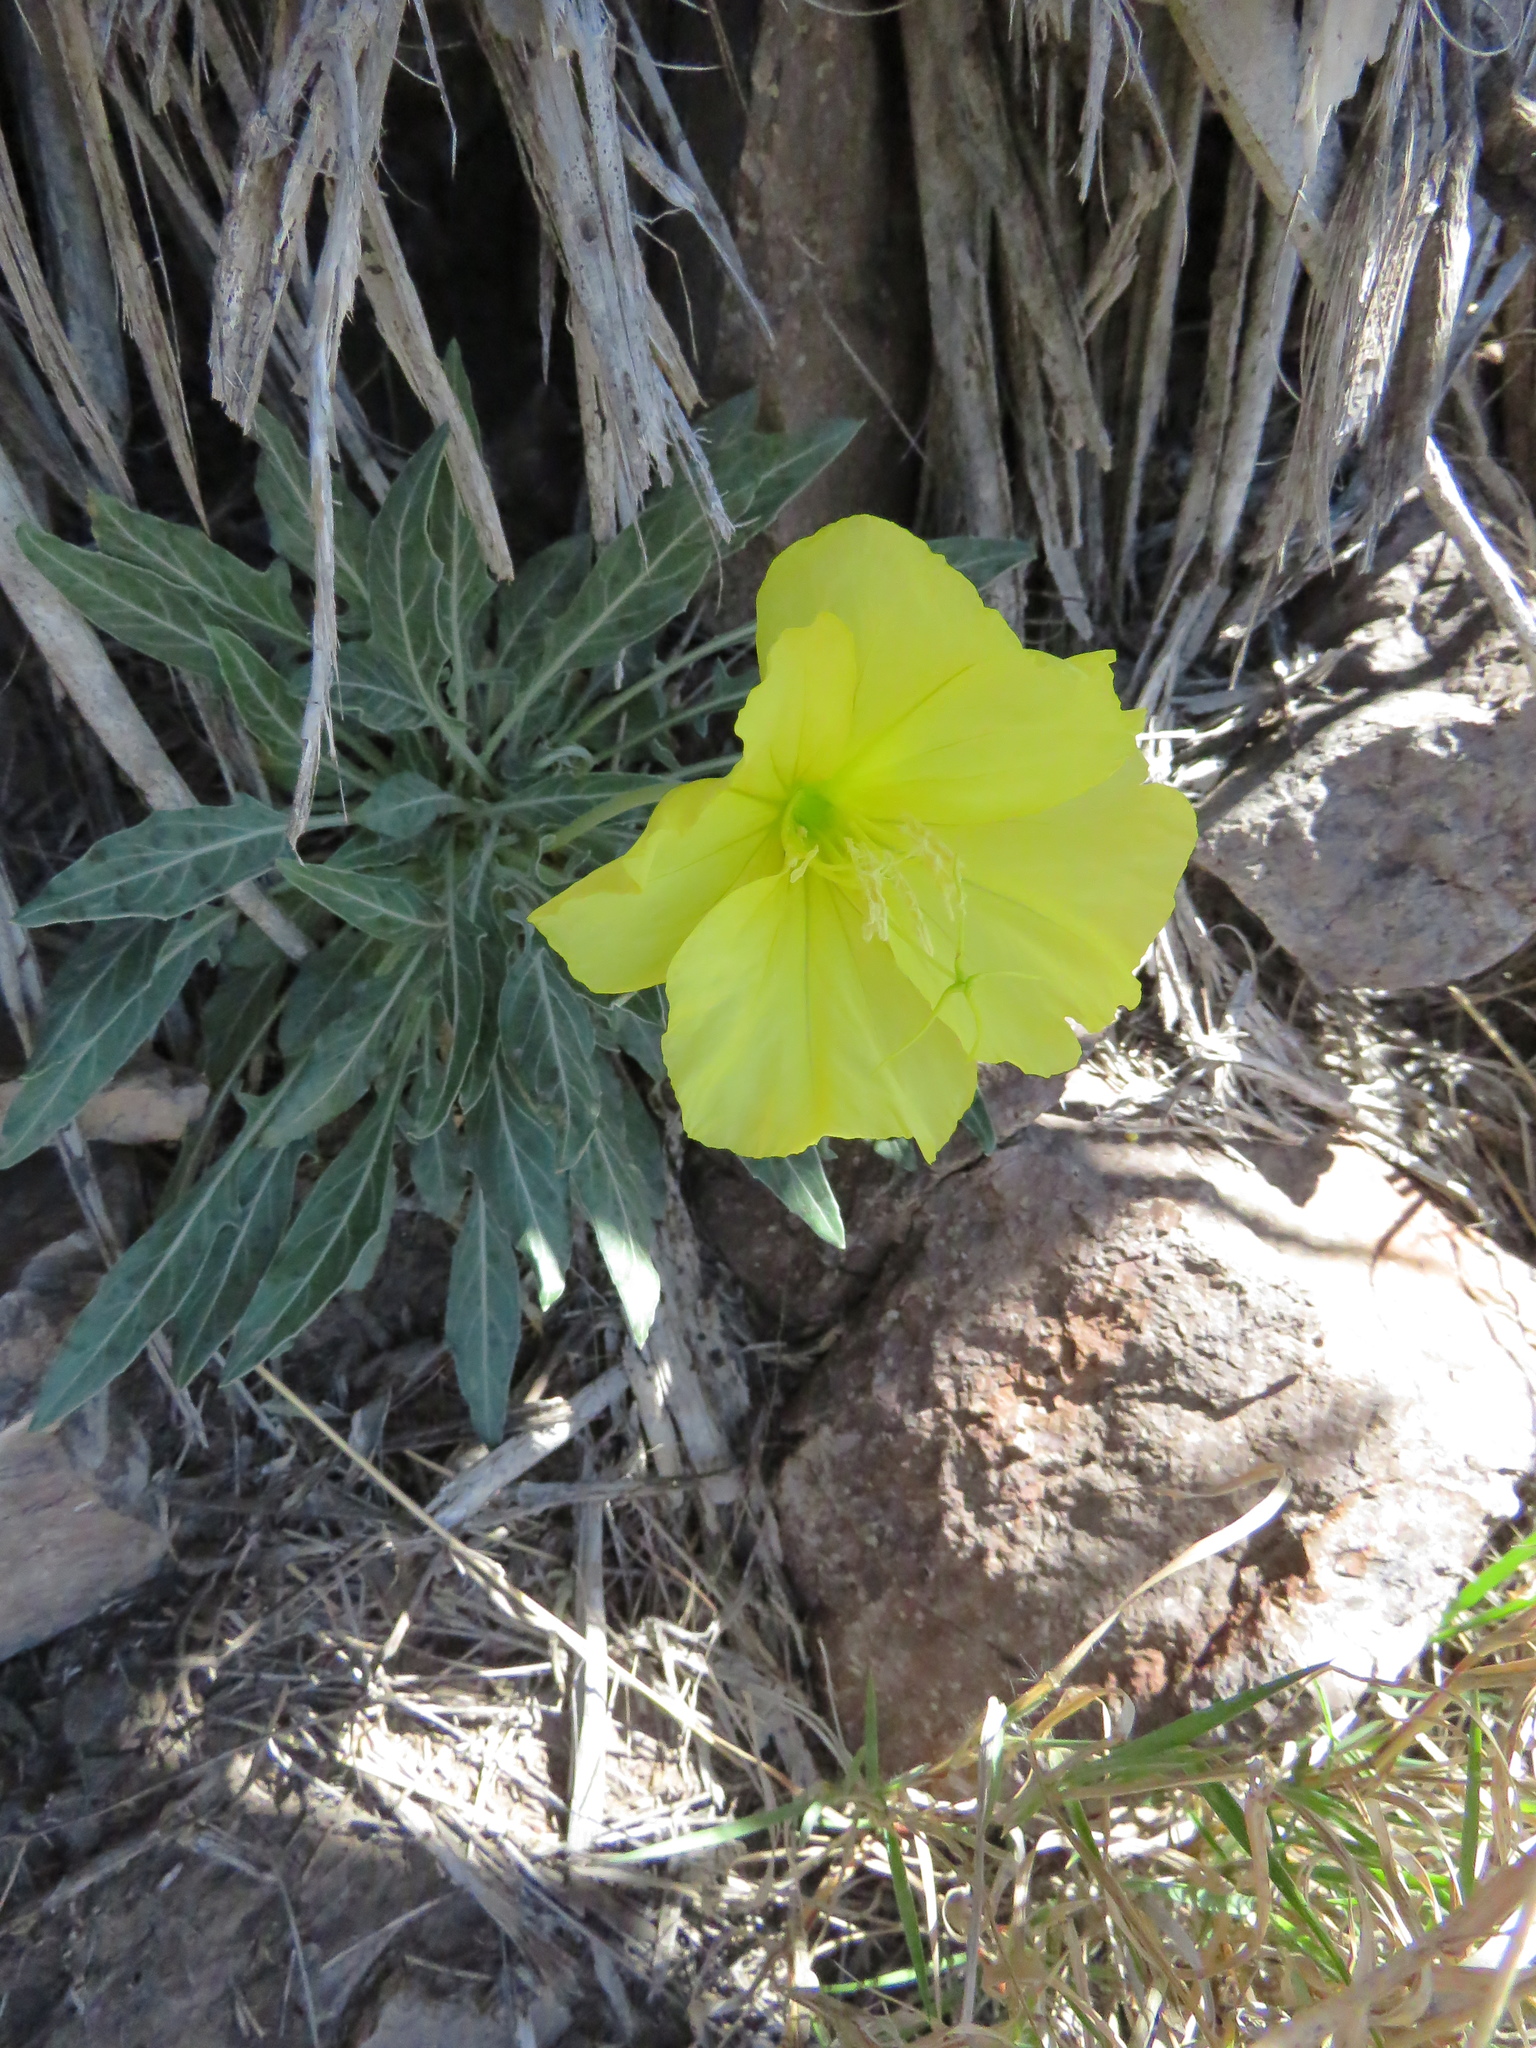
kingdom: Plantae
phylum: Tracheophyta
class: Magnoliopsida
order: Myrtales
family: Onagraceae
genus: Oenothera
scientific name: Oenothera brachycarpa
